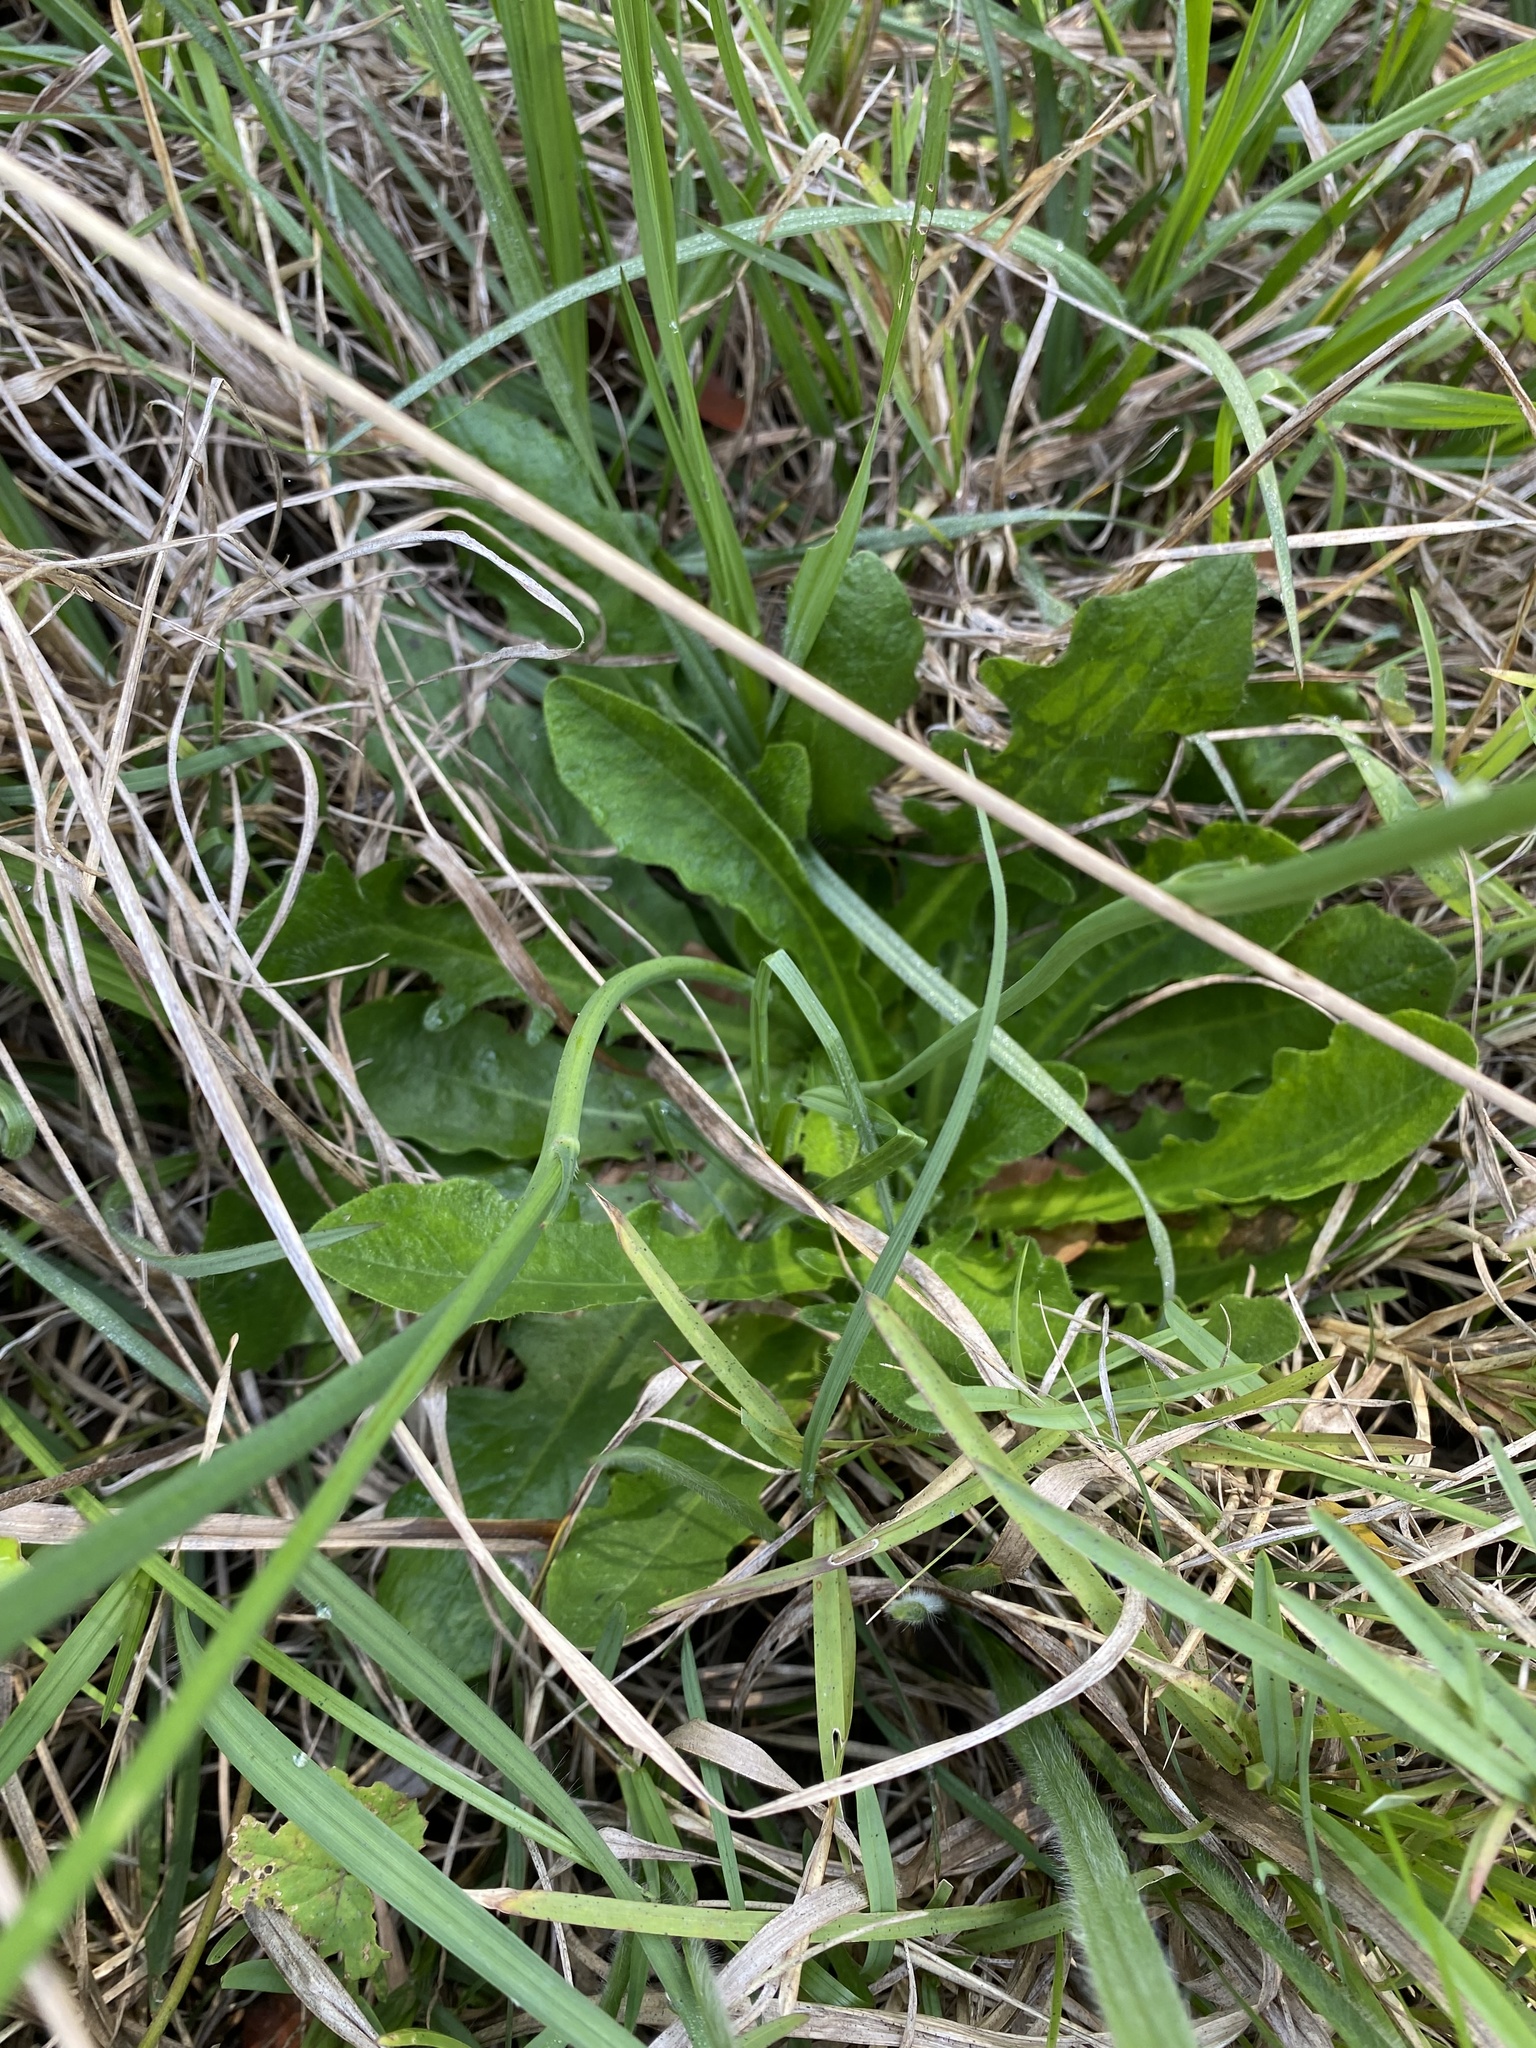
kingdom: Plantae
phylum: Tracheophyta
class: Magnoliopsida
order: Asterales
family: Asteraceae
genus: Hypochaeris
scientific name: Hypochaeris radicata
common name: Flatweed
